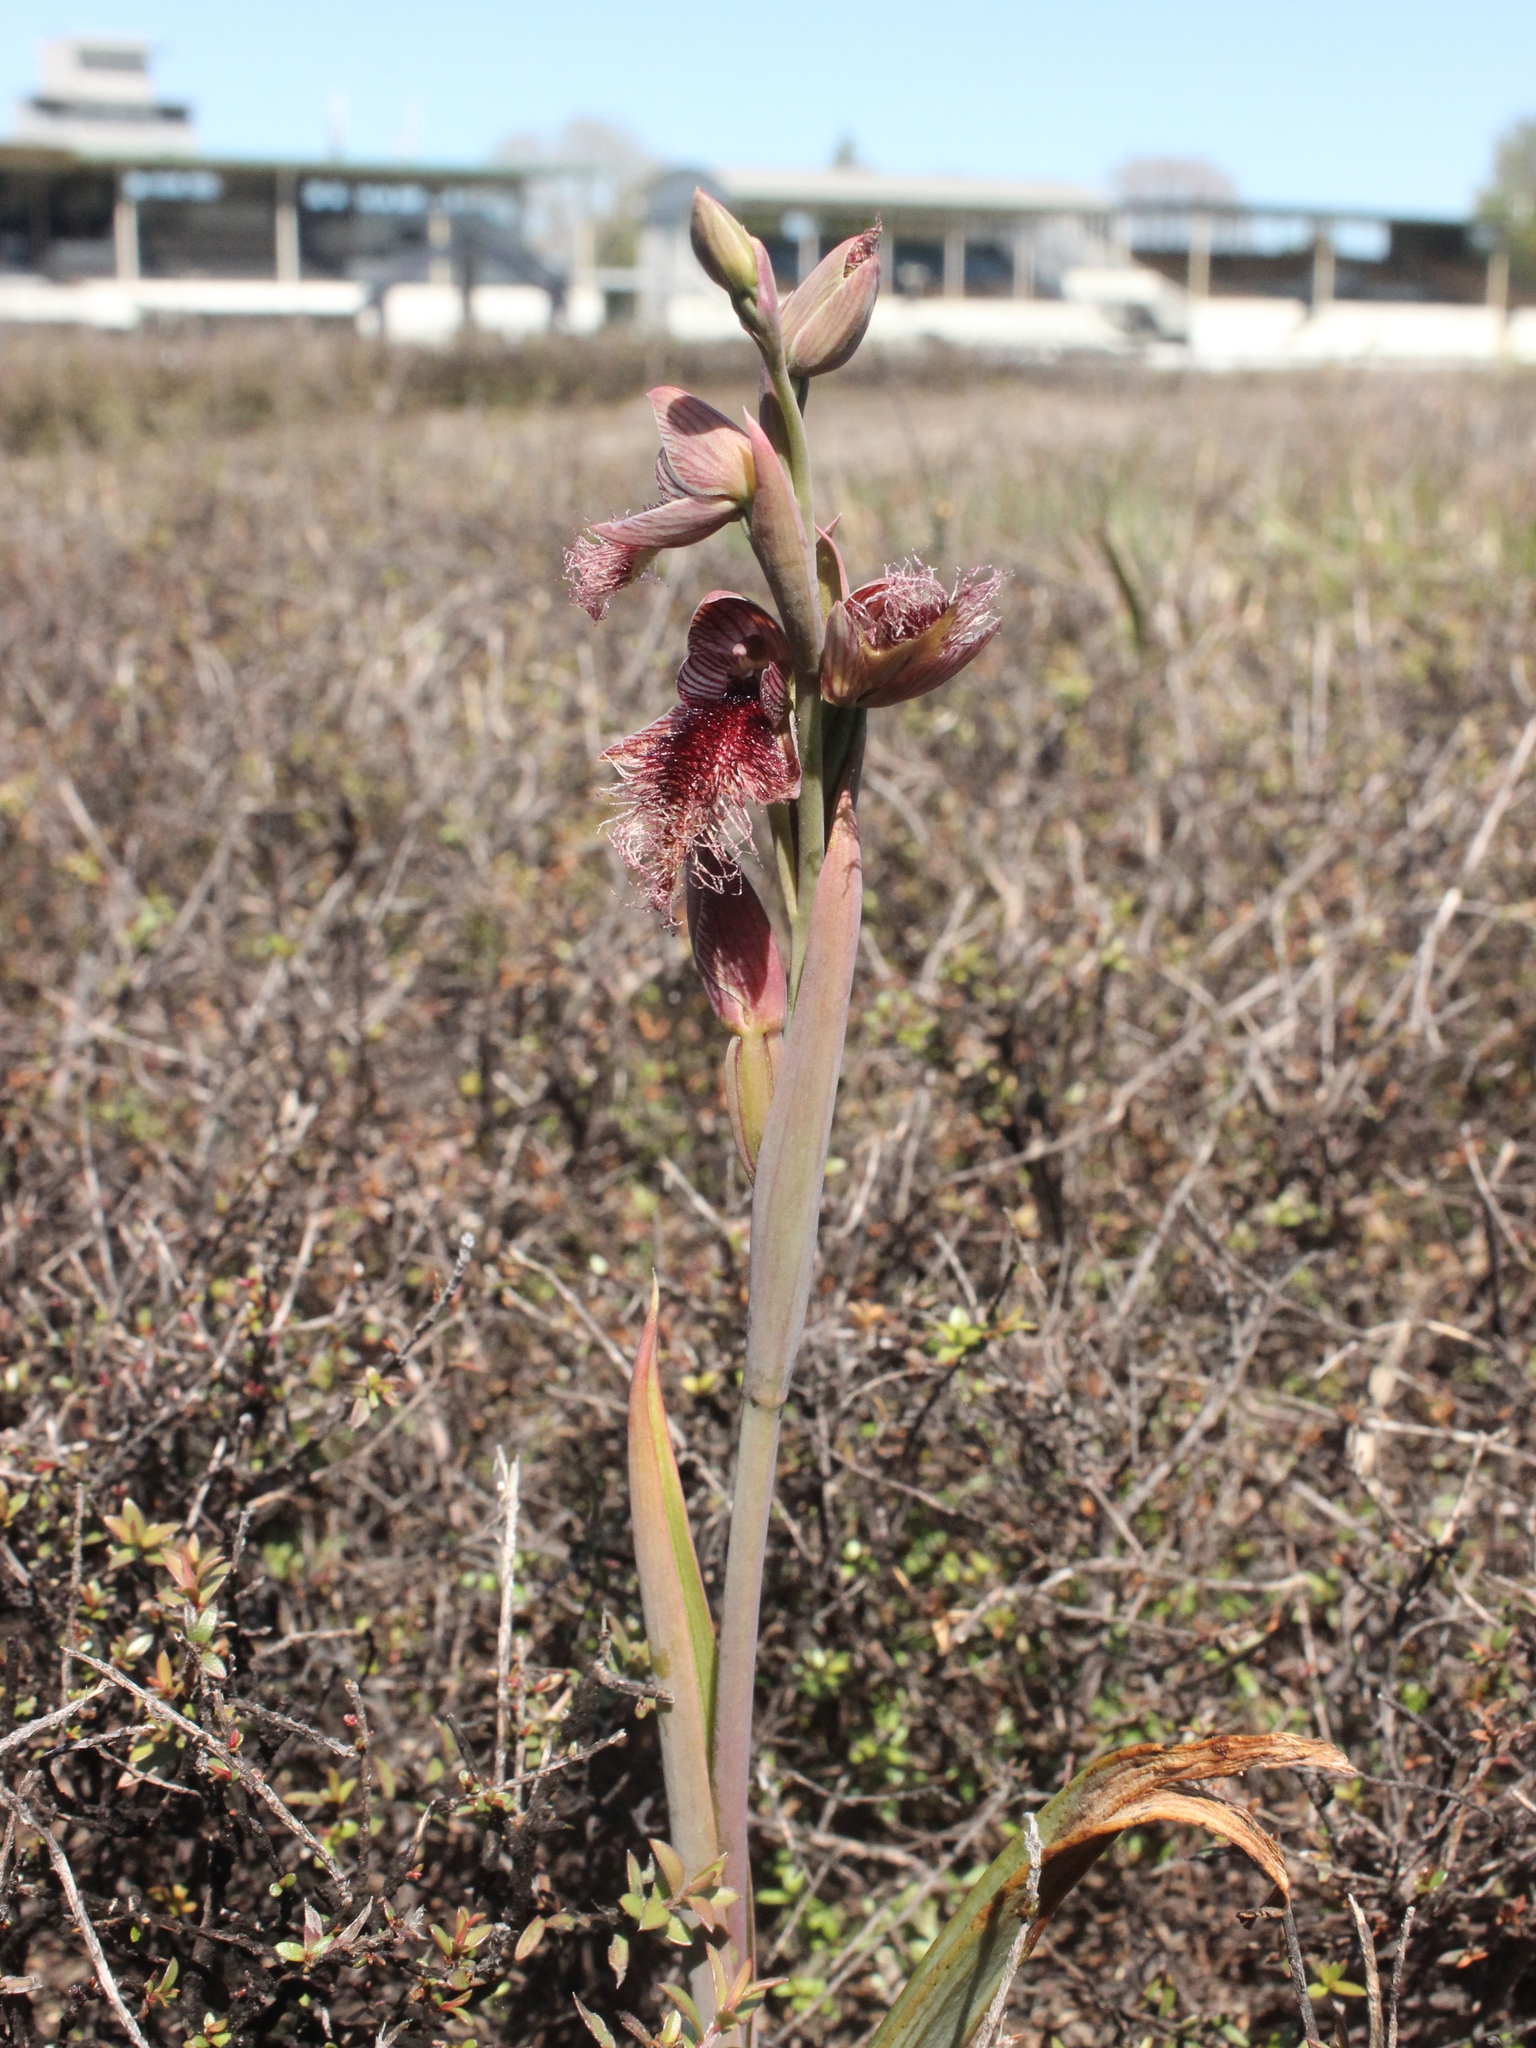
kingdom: Plantae
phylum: Tracheophyta
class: Liliopsida
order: Asparagales
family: Orchidaceae
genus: Calochilus
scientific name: Calochilus robertsonii
